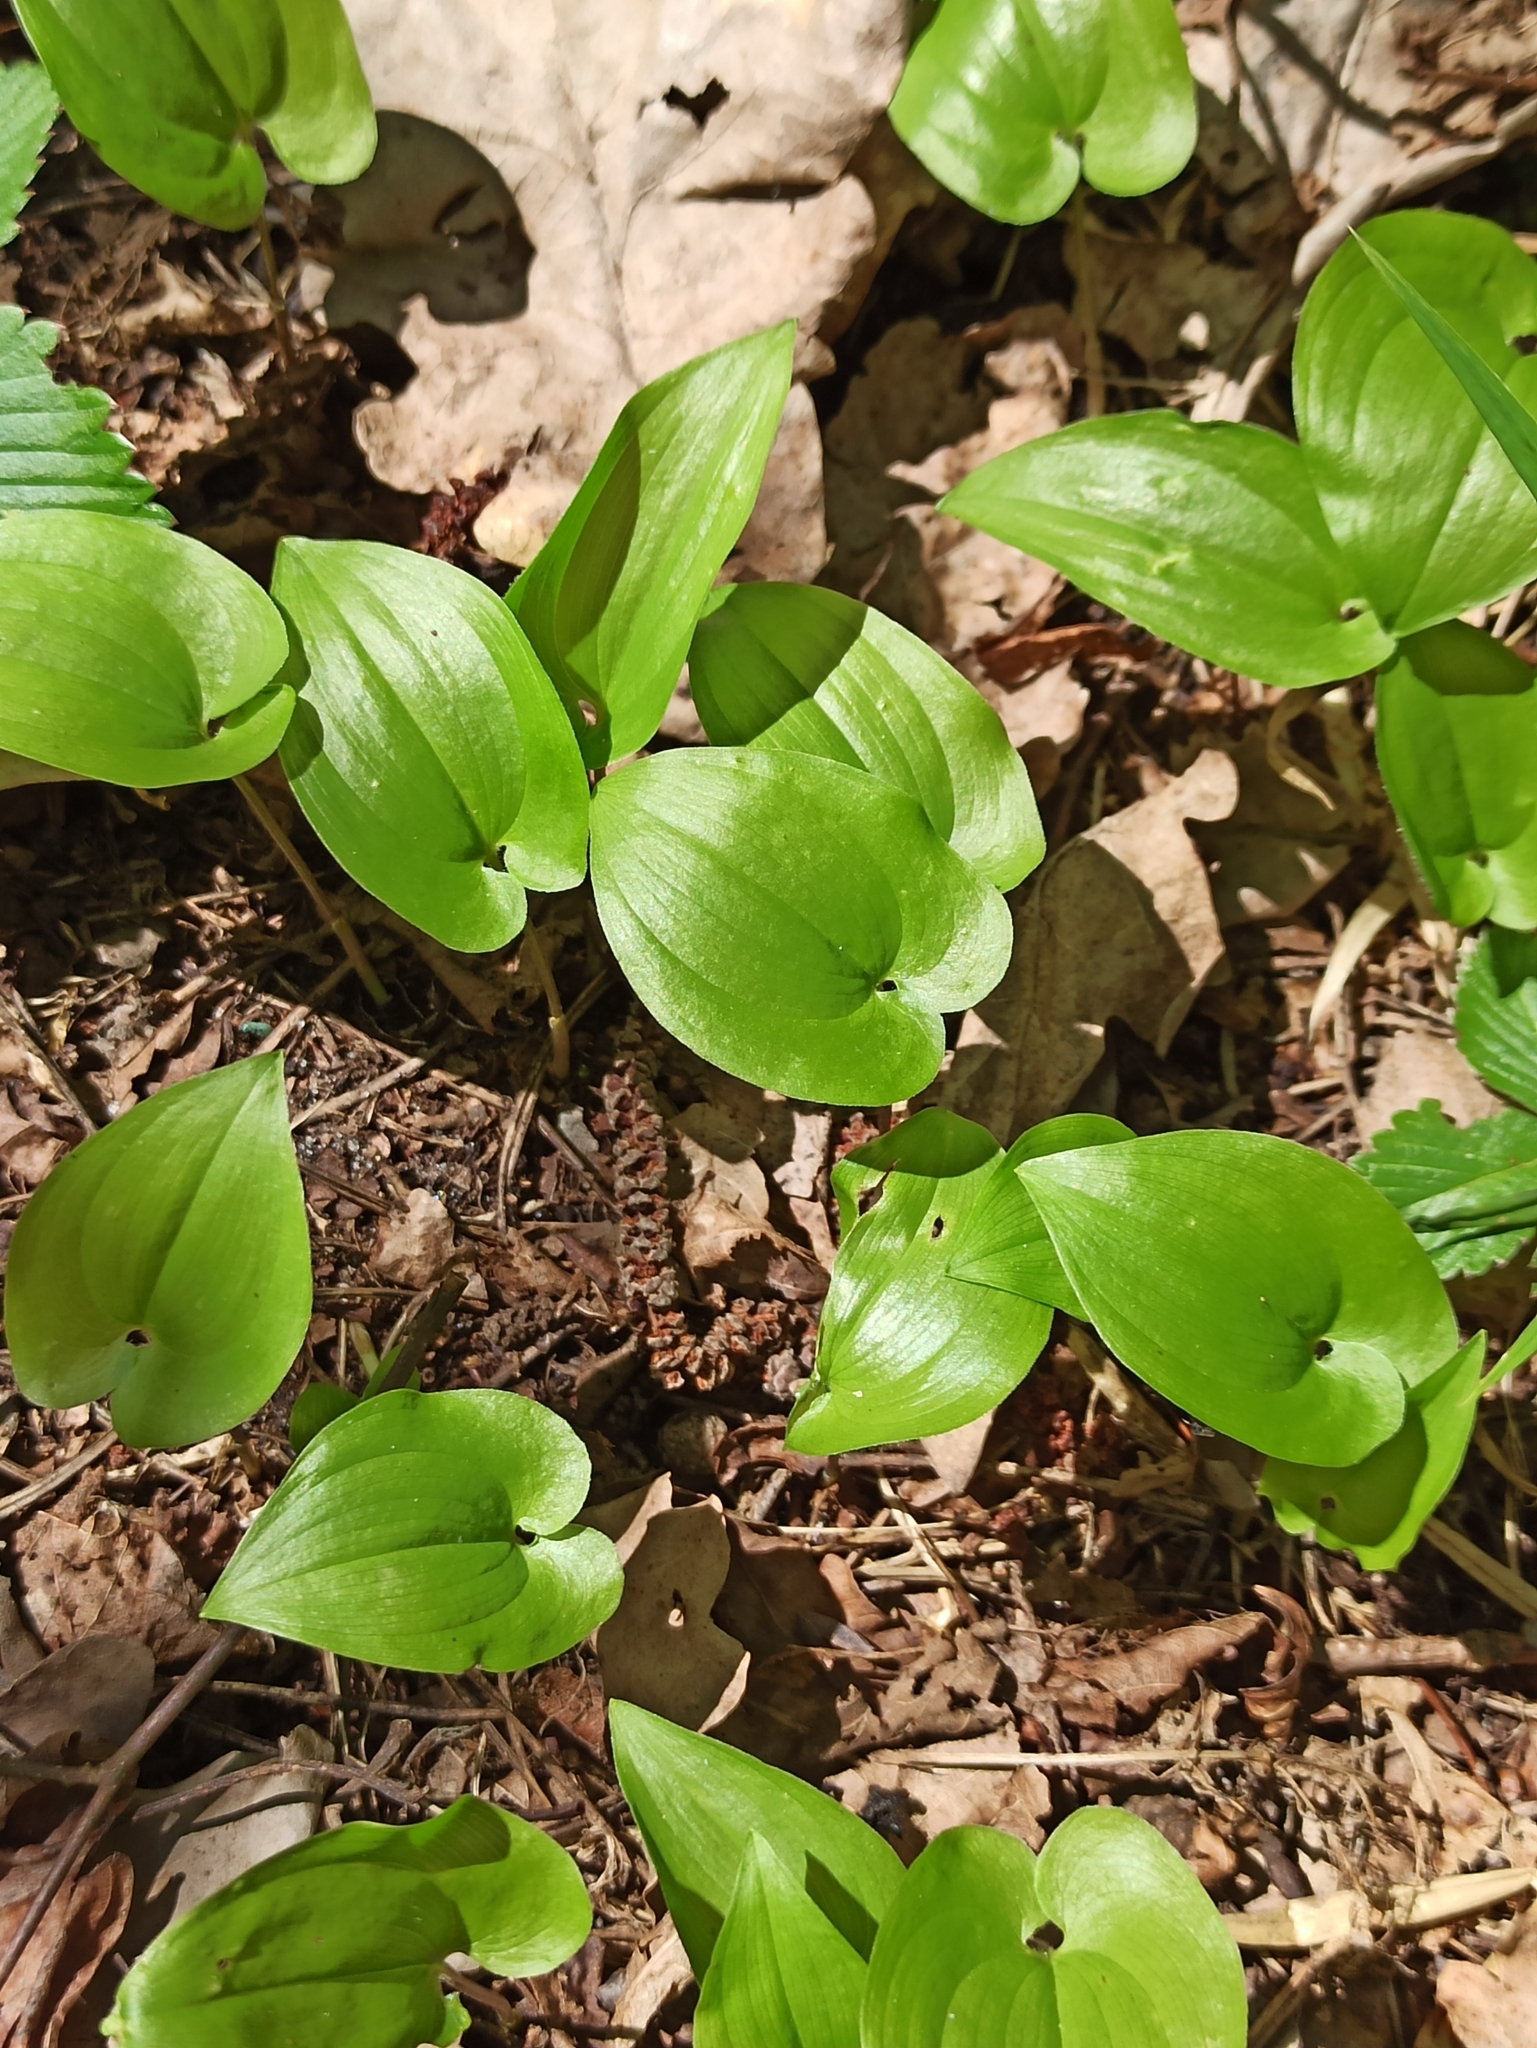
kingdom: Plantae
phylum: Tracheophyta
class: Liliopsida
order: Asparagales
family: Asparagaceae
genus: Maianthemum
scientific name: Maianthemum bifolium
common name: May lily
